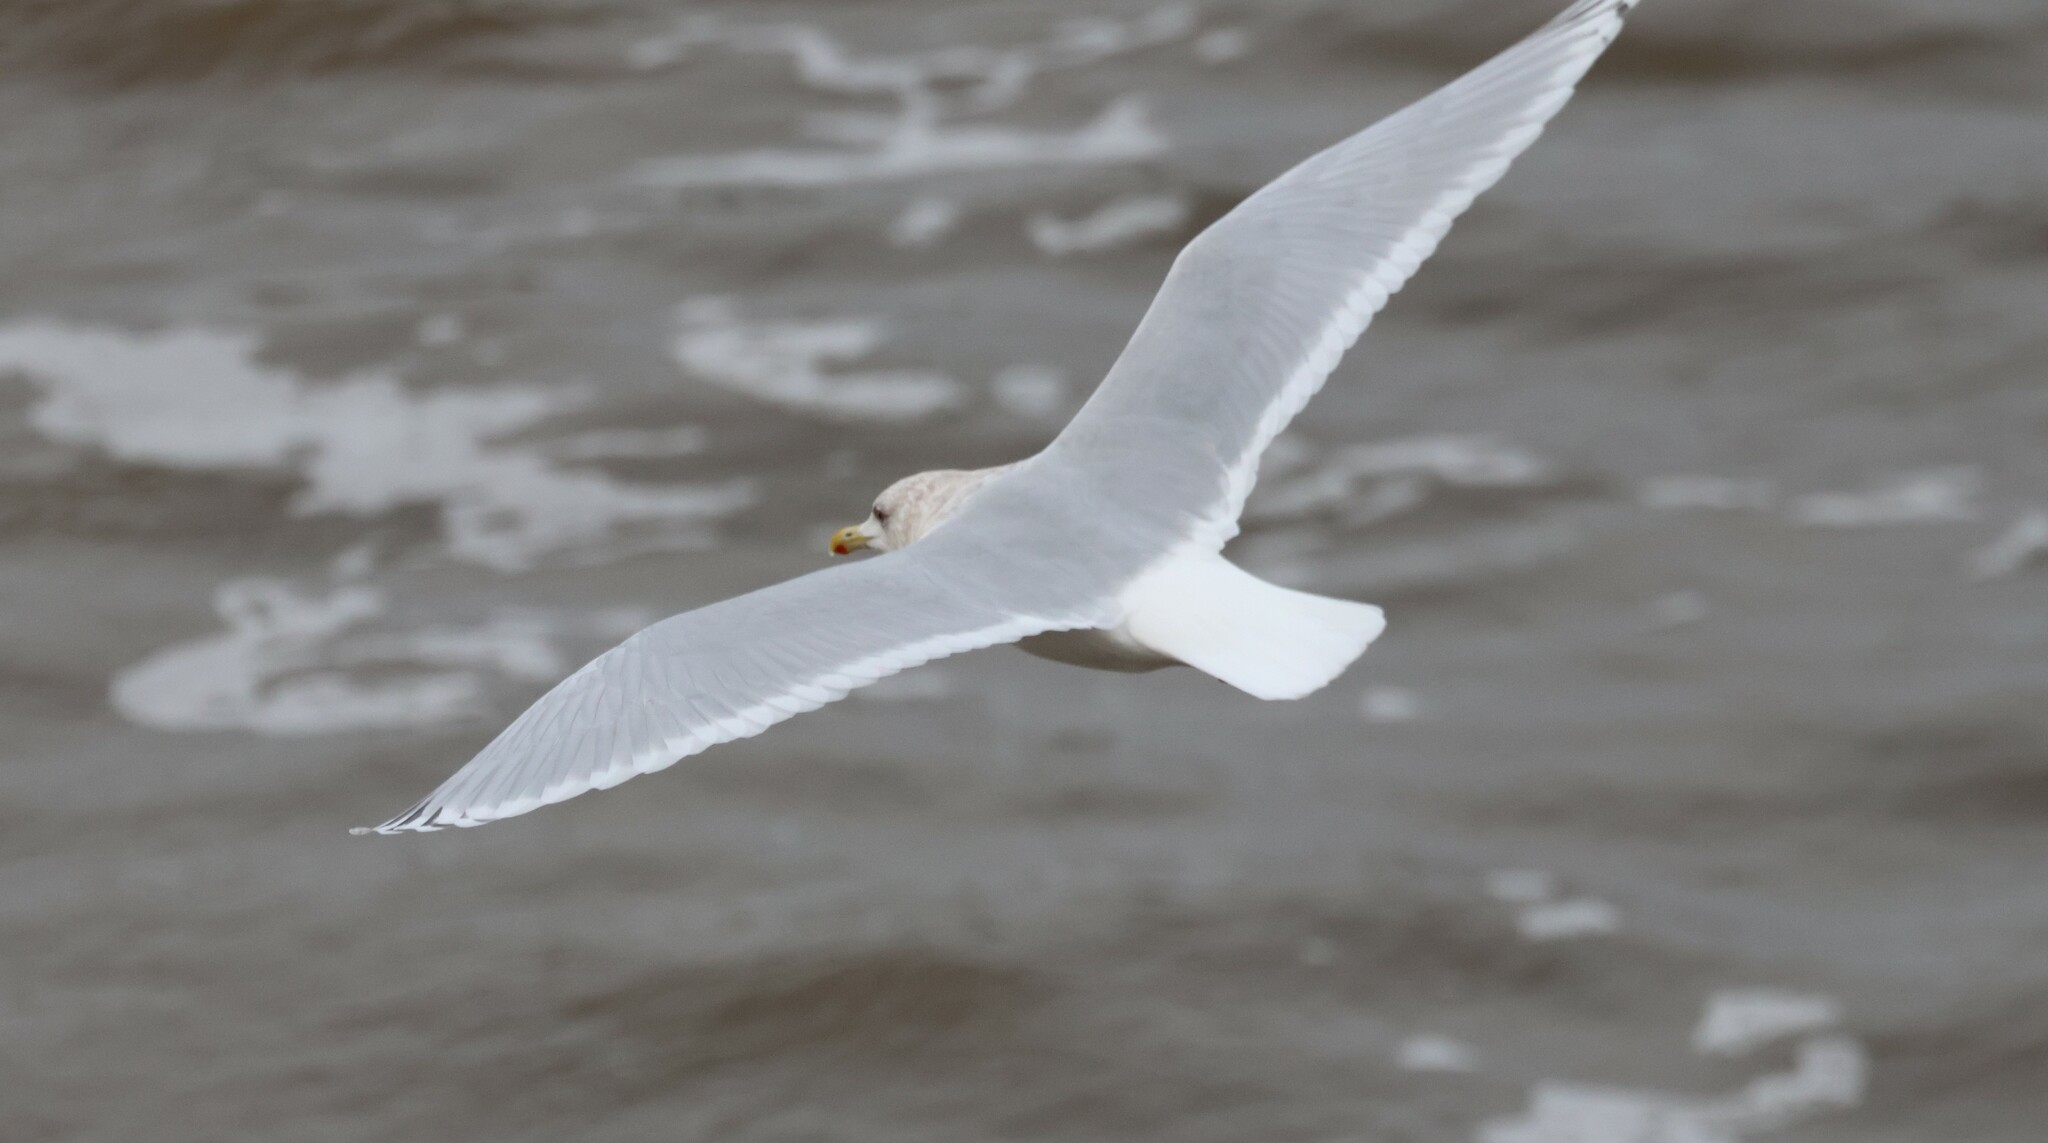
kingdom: Animalia
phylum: Chordata
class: Aves
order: Charadriiformes
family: Laridae
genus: Larus
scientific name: Larus glaucoides
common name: Iceland gull
